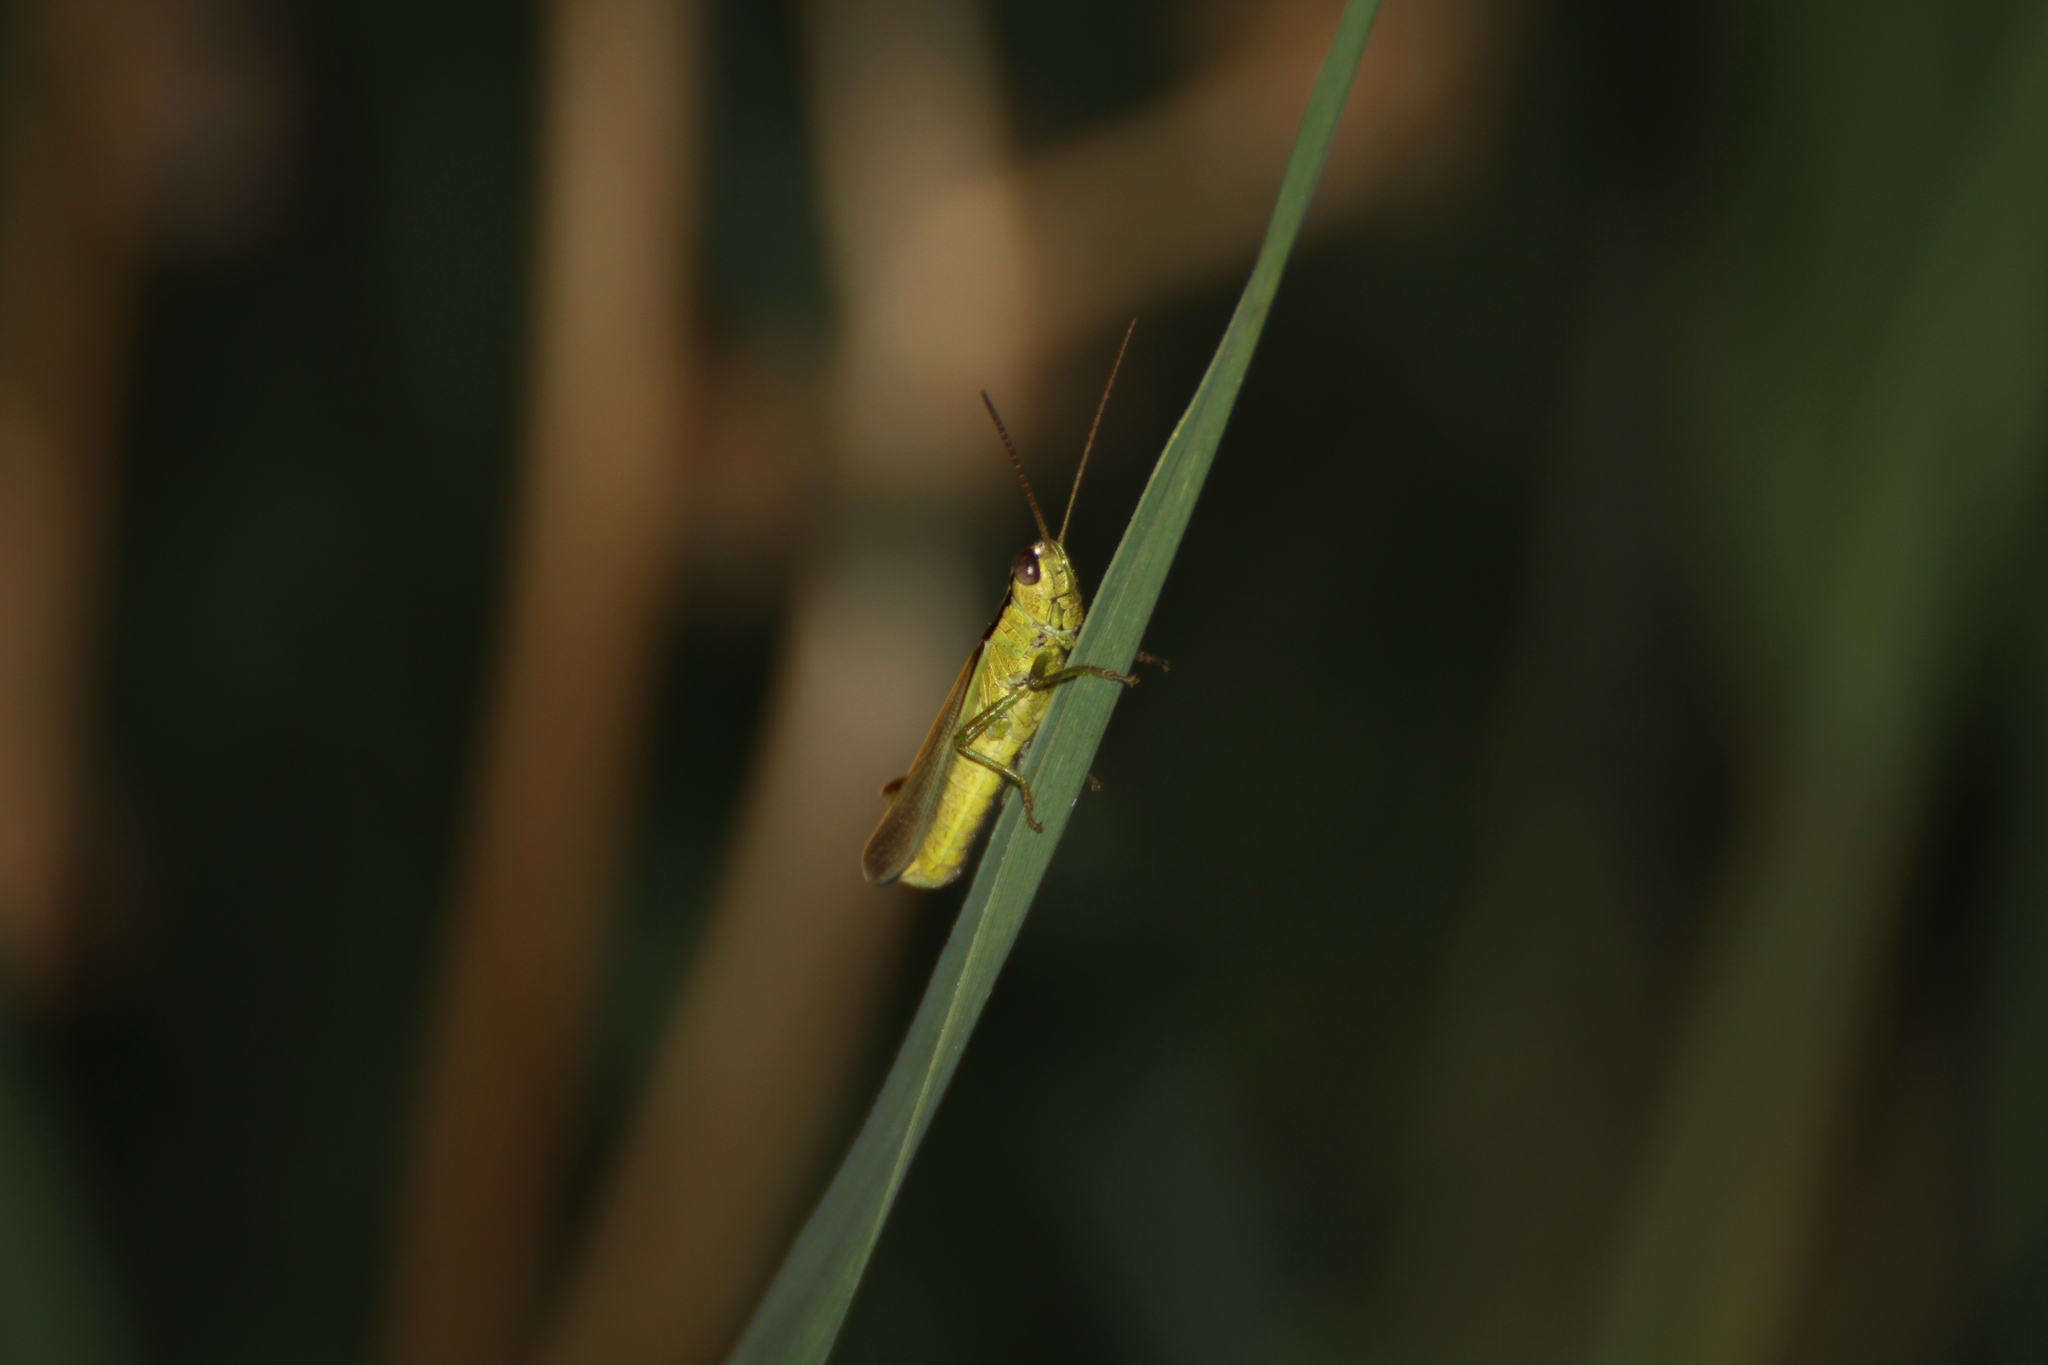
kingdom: Animalia
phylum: Arthropoda
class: Insecta
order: Orthoptera
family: Acrididae
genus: Mecostethus
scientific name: Mecostethus parapleurus
